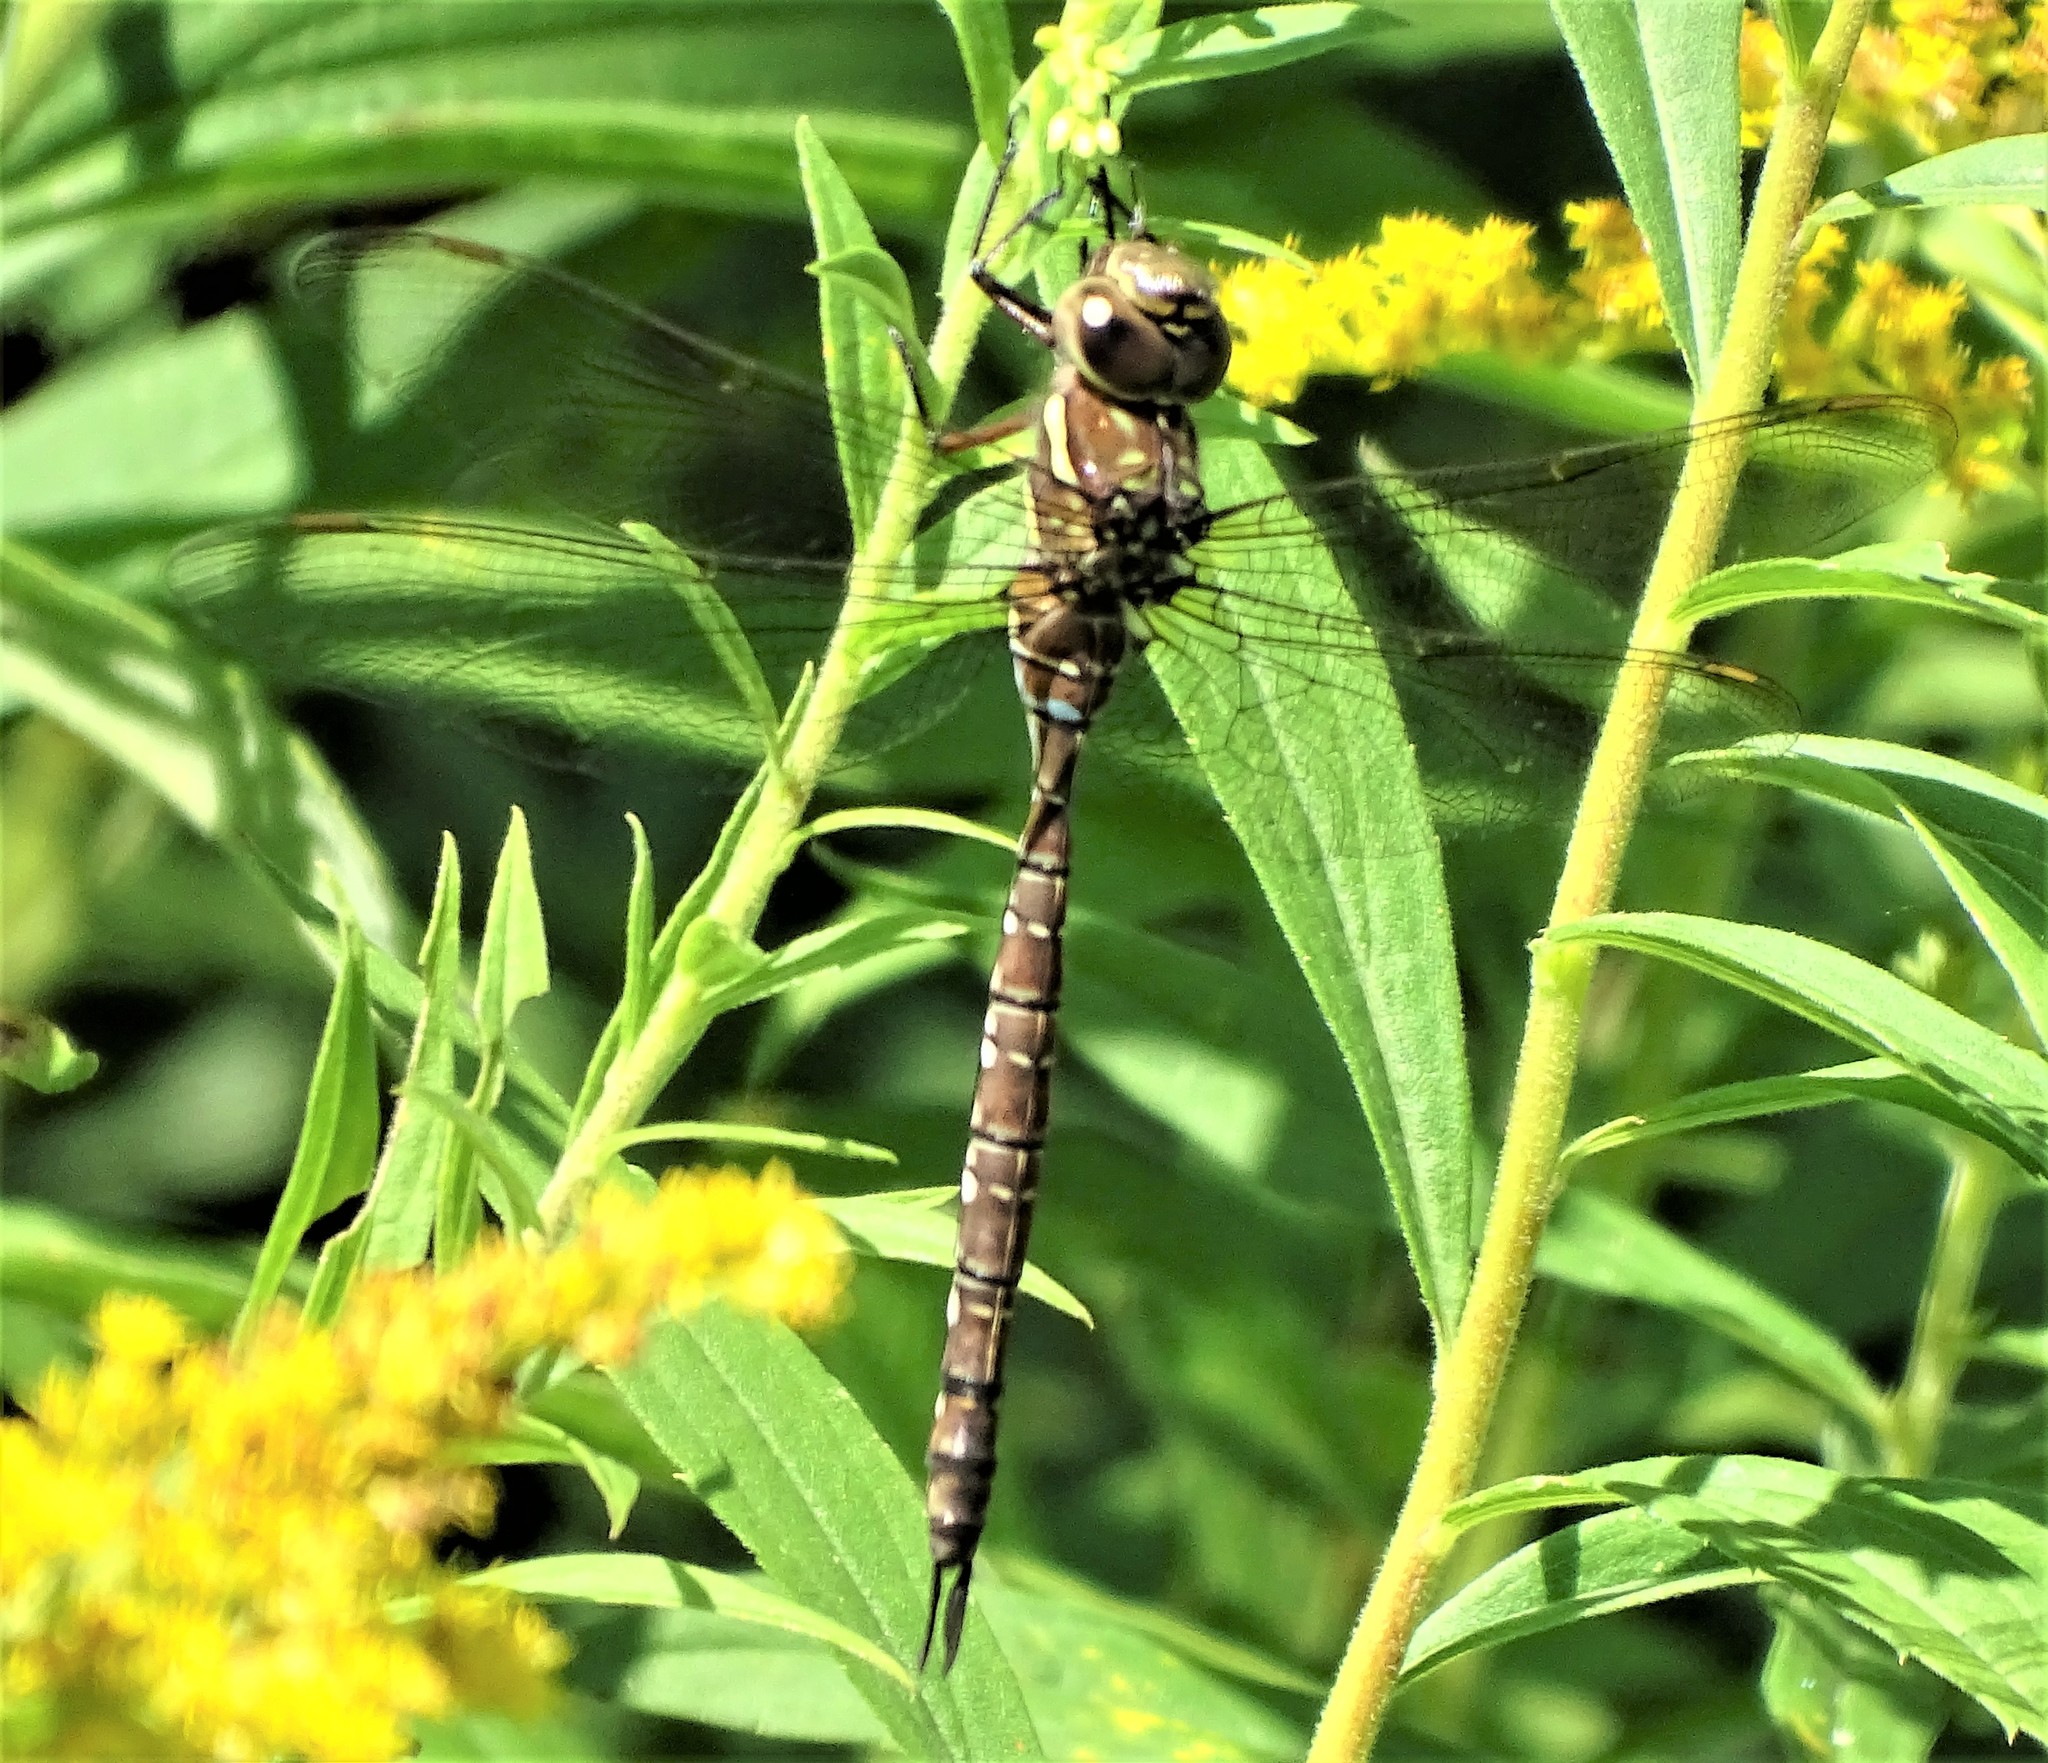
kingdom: Animalia
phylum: Arthropoda
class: Insecta
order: Odonata
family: Aeshnidae
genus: Aeshna
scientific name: Aeshna umbrosa
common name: Shadow darner
